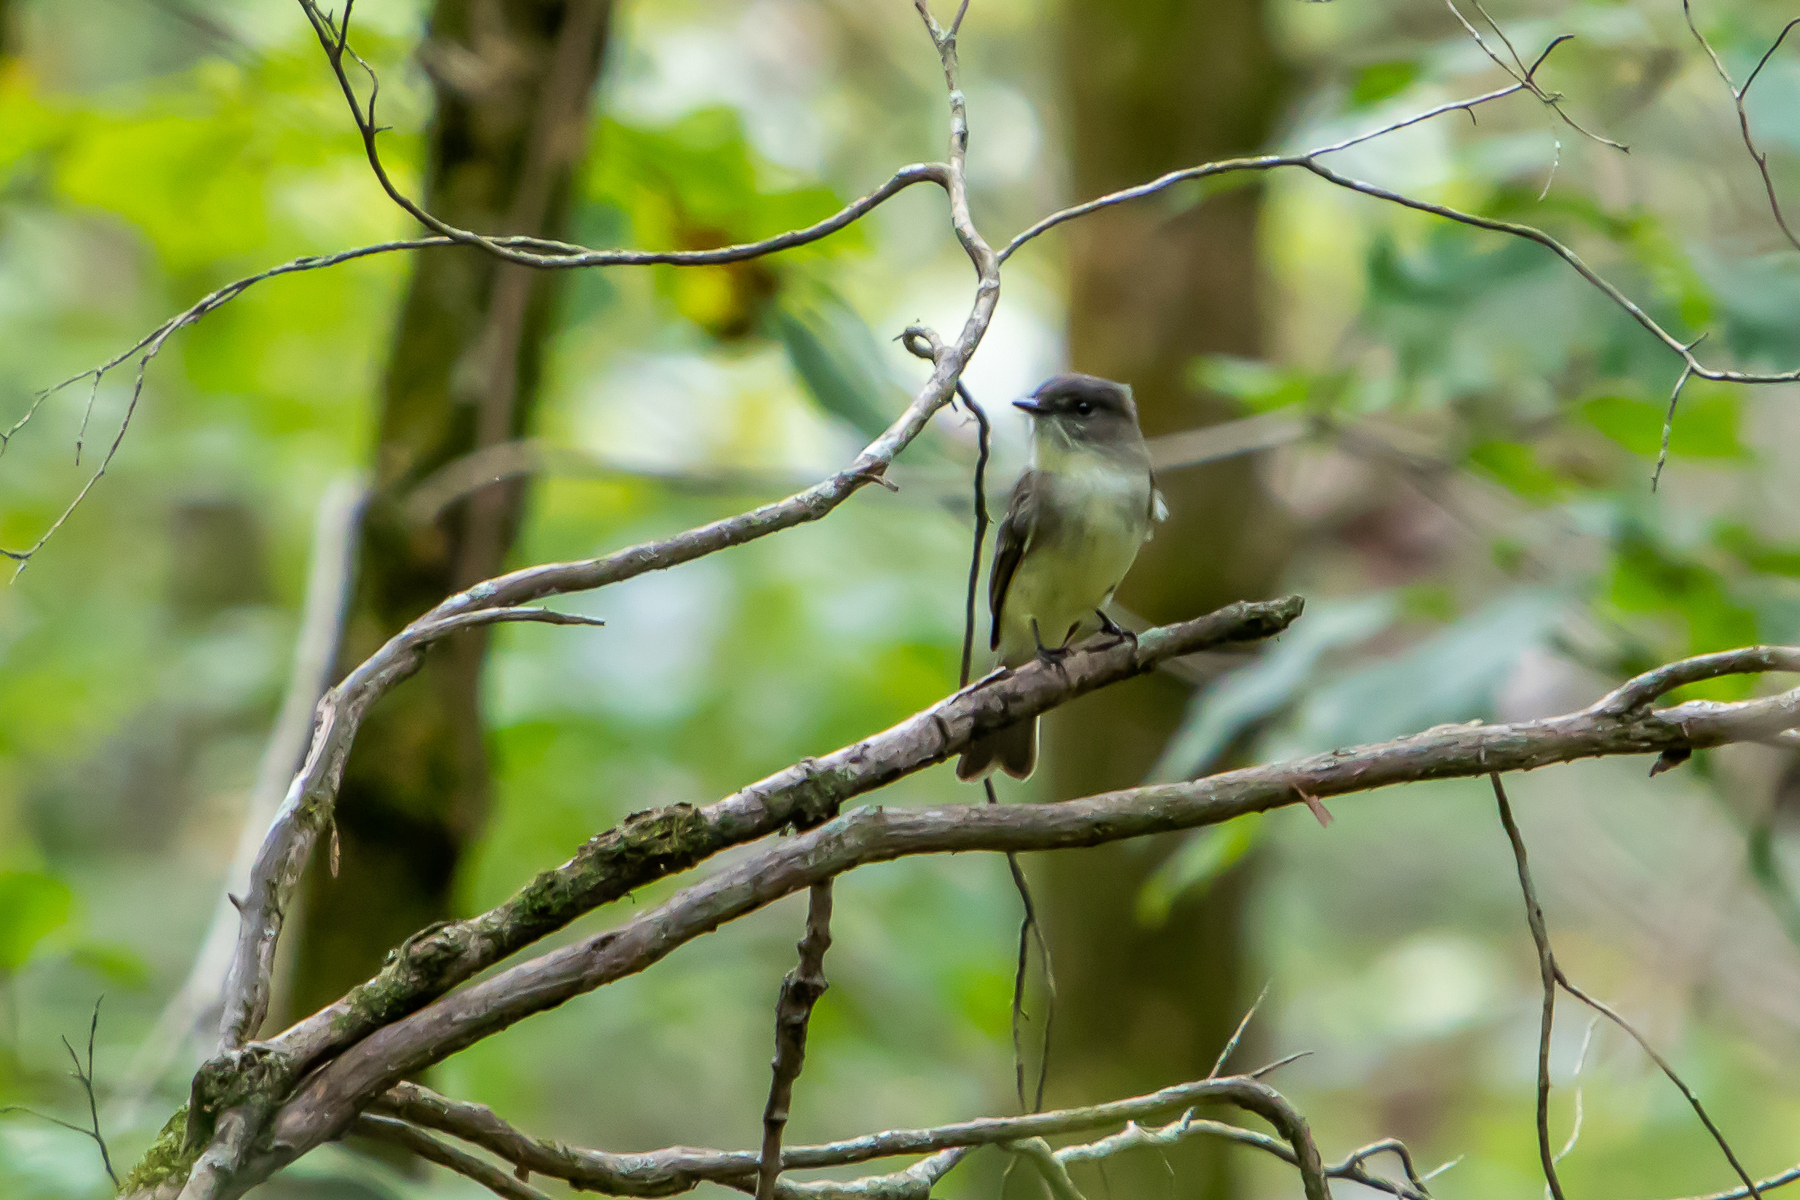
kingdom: Animalia
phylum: Chordata
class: Aves
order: Passeriformes
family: Tyrannidae
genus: Sayornis
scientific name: Sayornis phoebe
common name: Eastern phoebe
